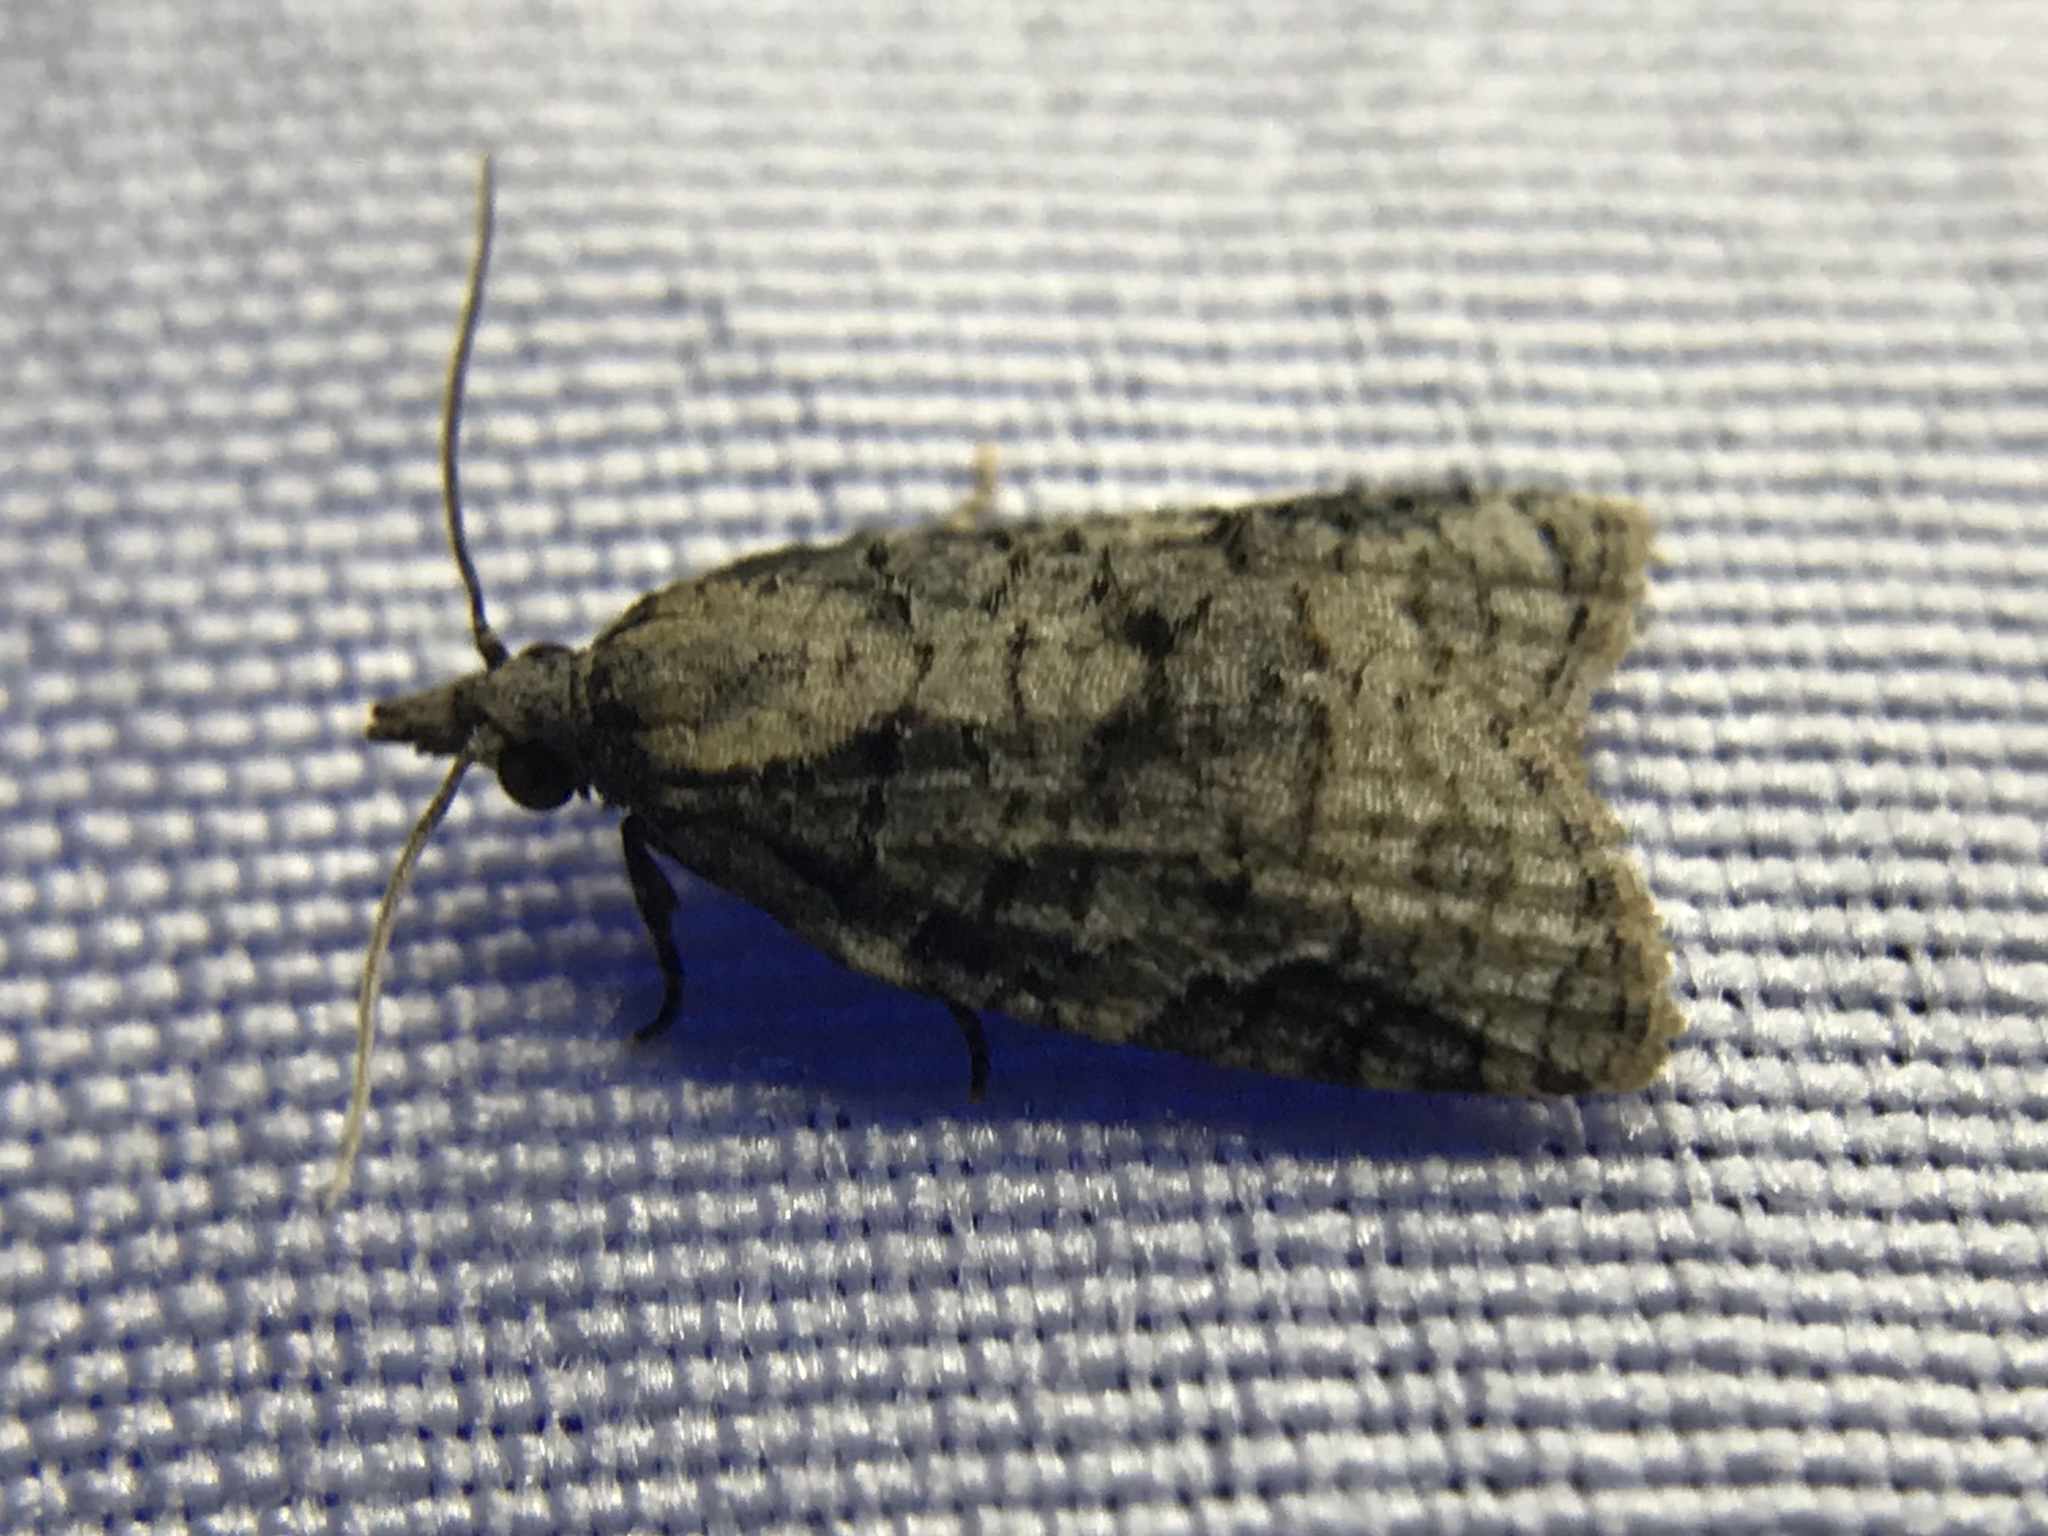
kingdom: Animalia
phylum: Arthropoda
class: Insecta
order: Lepidoptera
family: Tortricidae
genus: Platynota
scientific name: Platynota idaeusalis
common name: Tufted apple bud moth
